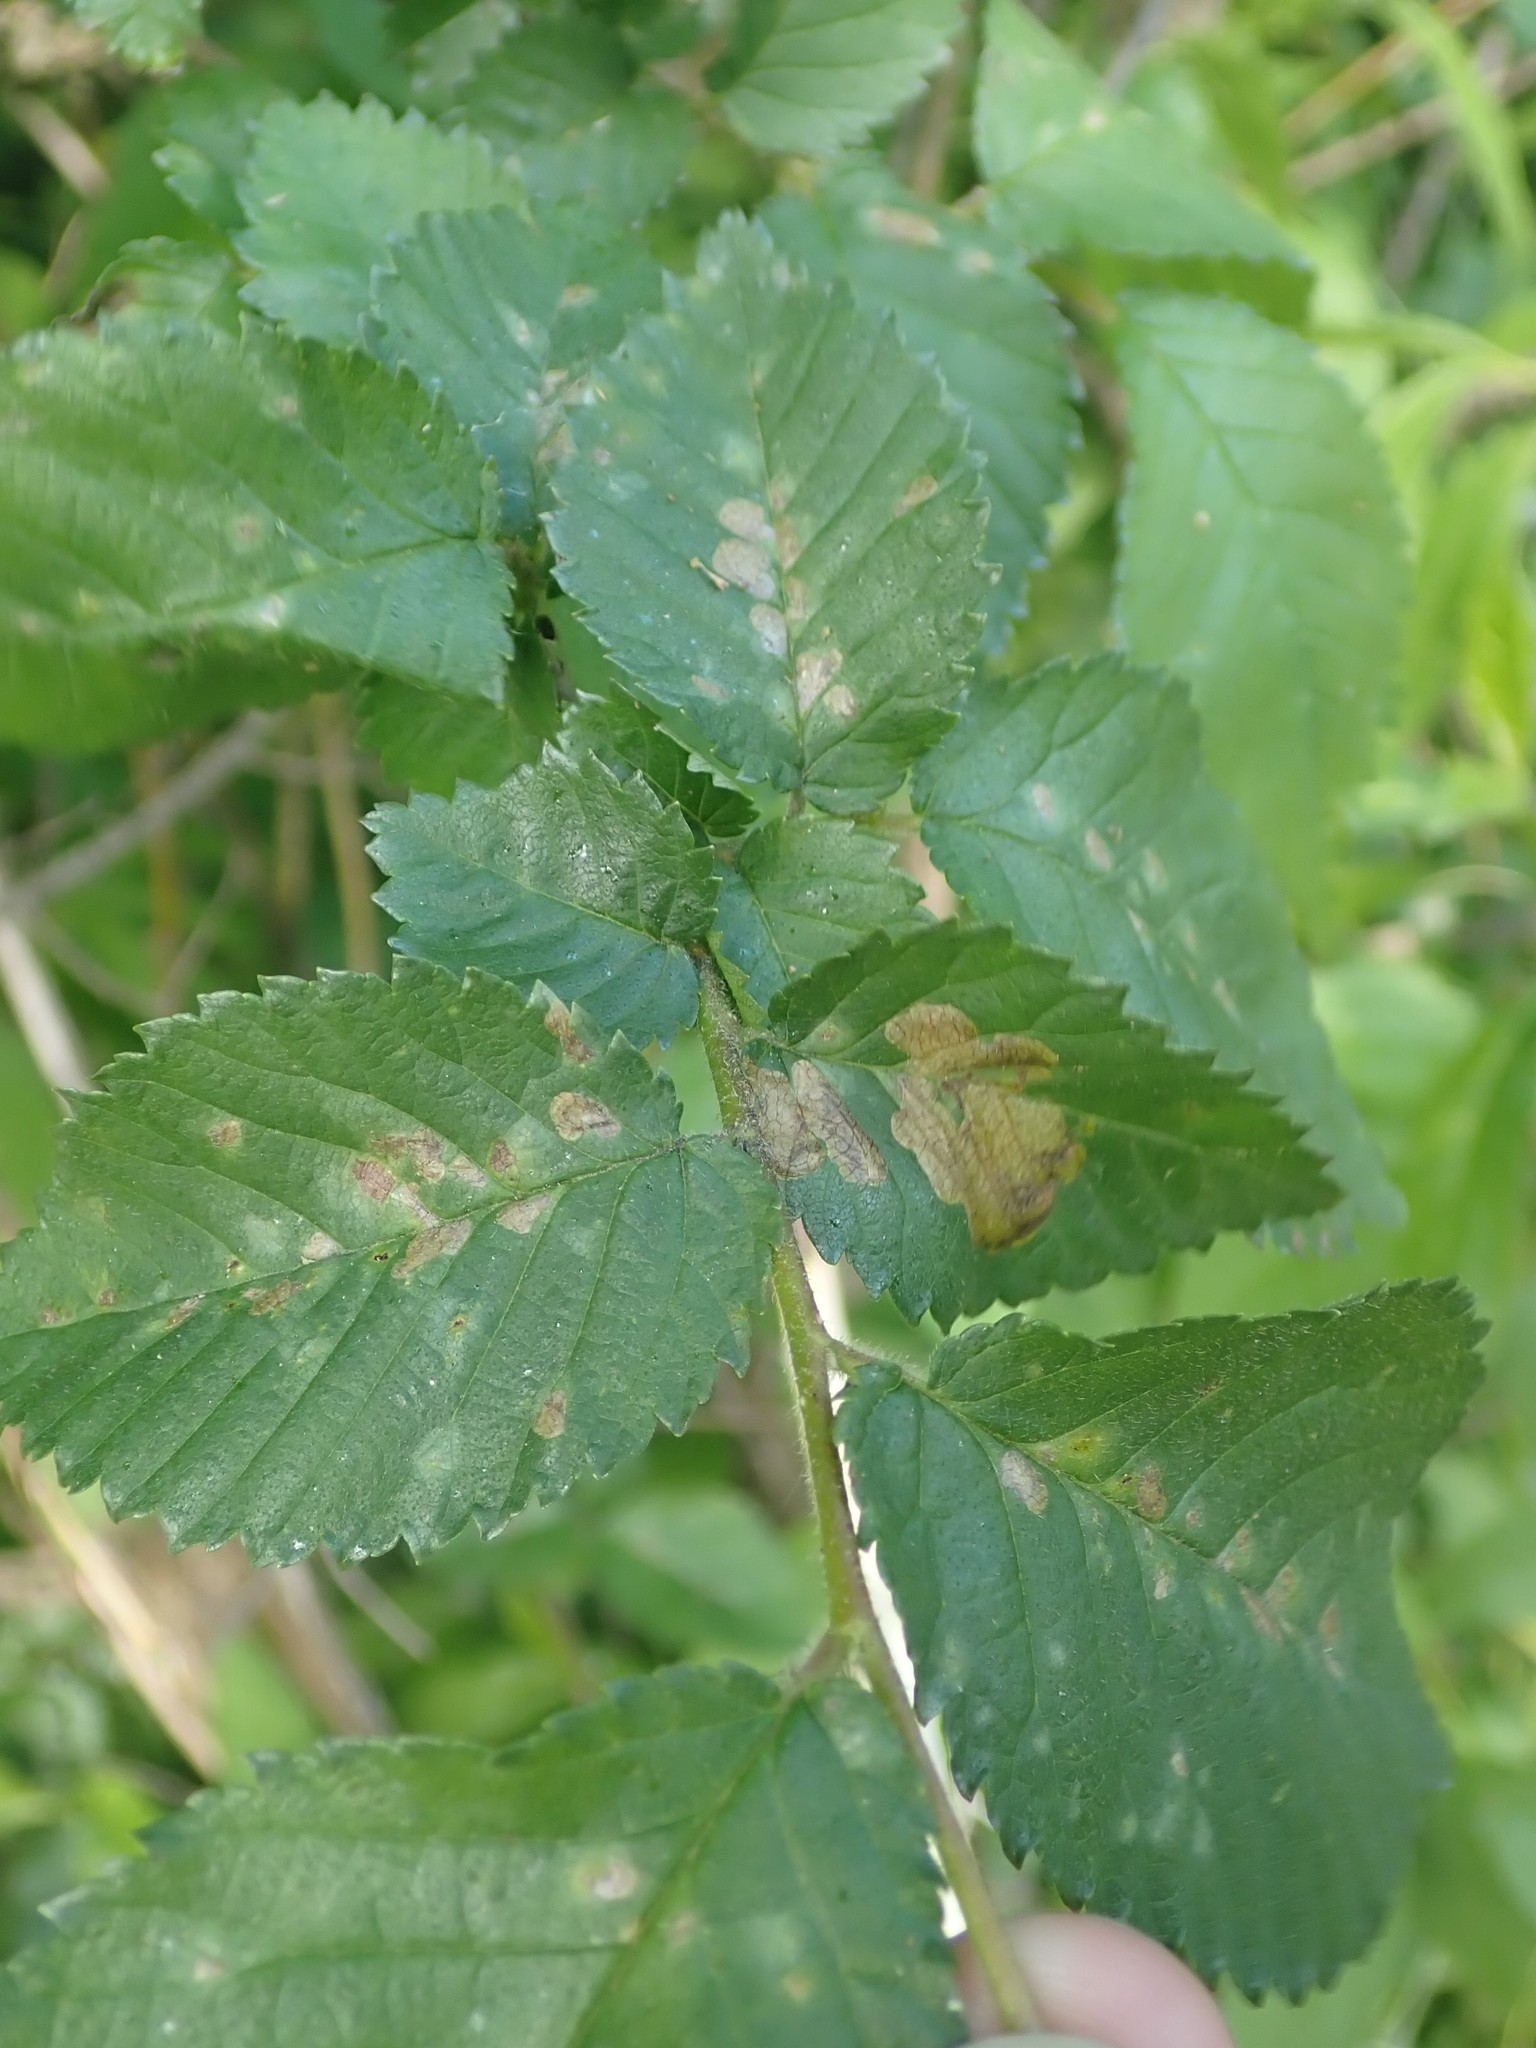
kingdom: Animalia
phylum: Arthropoda
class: Insecta
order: Hymenoptera
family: Tenthredinidae
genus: Fenusa
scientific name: Fenusa ulmi
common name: Elm leafminer
